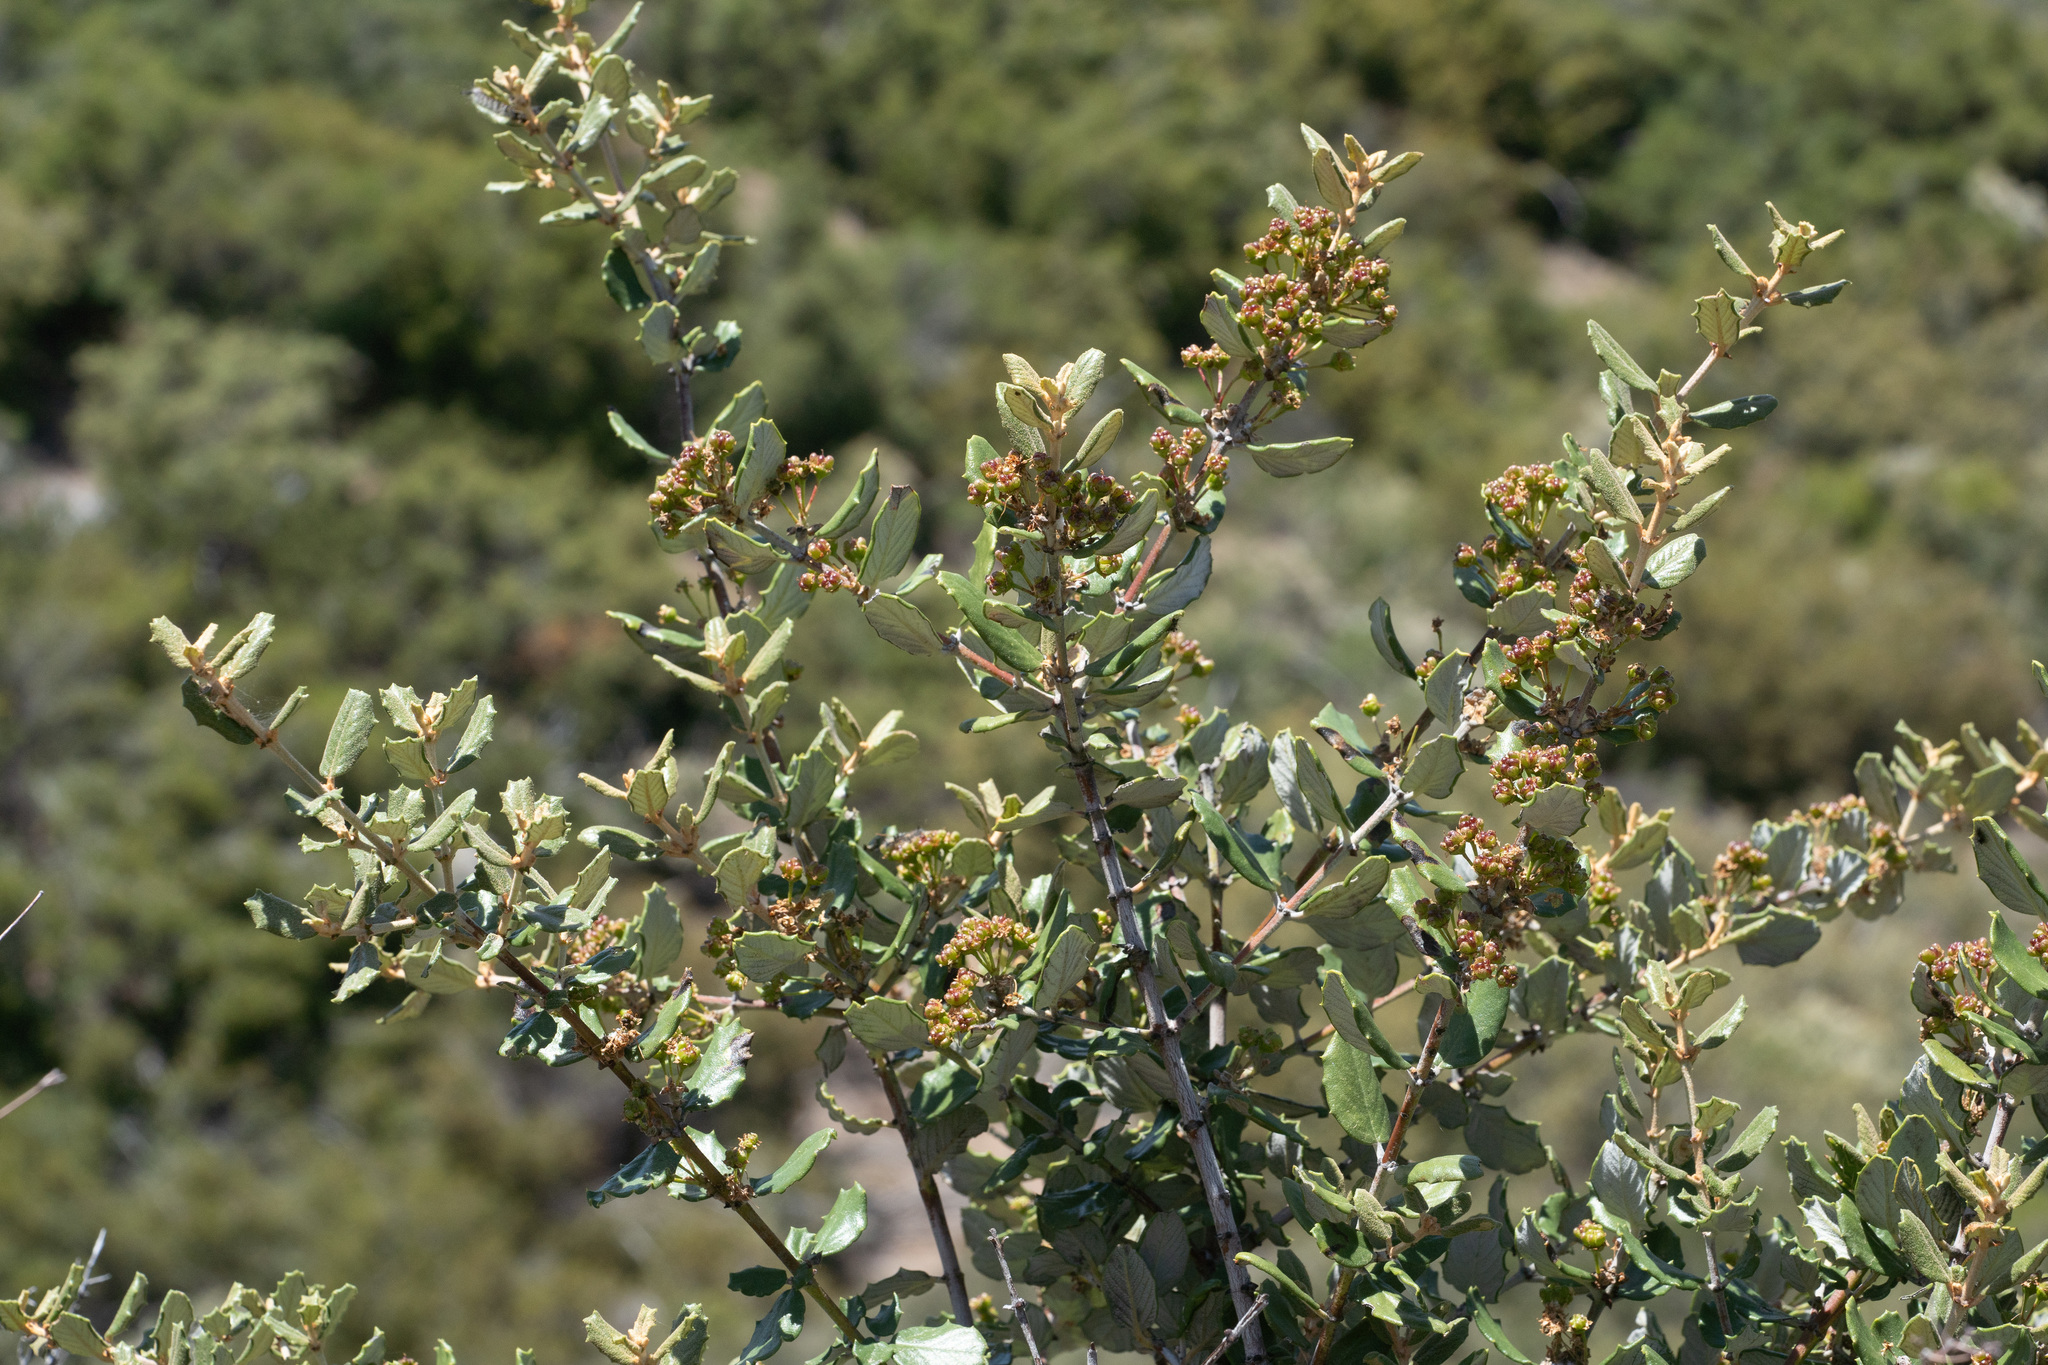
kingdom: Plantae
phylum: Tracheophyta
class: Magnoliopsida
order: Rosales
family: Rhamnaceae
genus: Ceanothus
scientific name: Ceanothus crassifolius
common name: Hoaryleaf ceanothus
